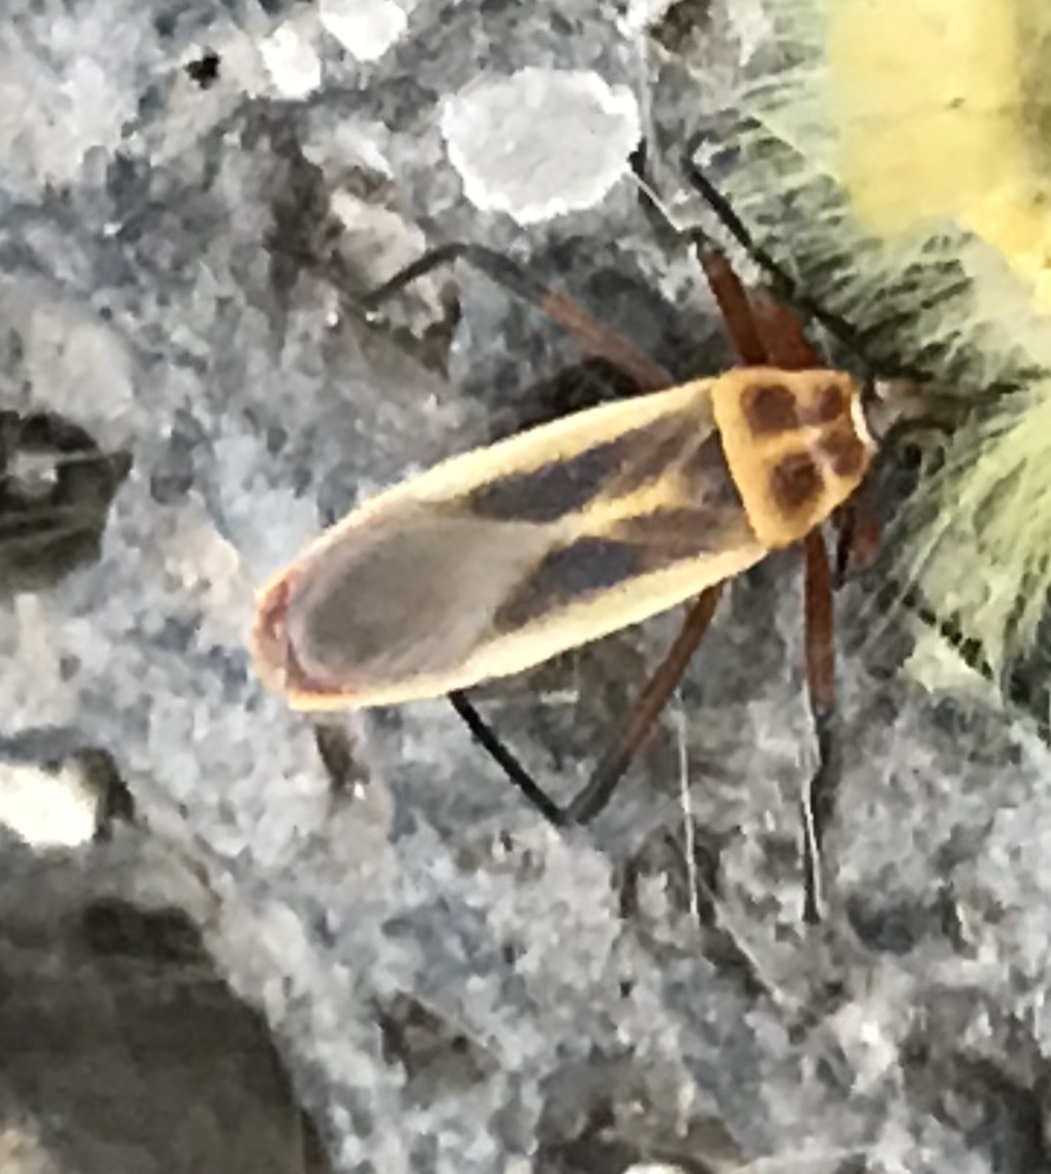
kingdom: Animalia
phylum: Arthropoda
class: Insecta
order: Hemiptera
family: Largidae
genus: Stenomacra
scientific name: Stenomacra marginella
